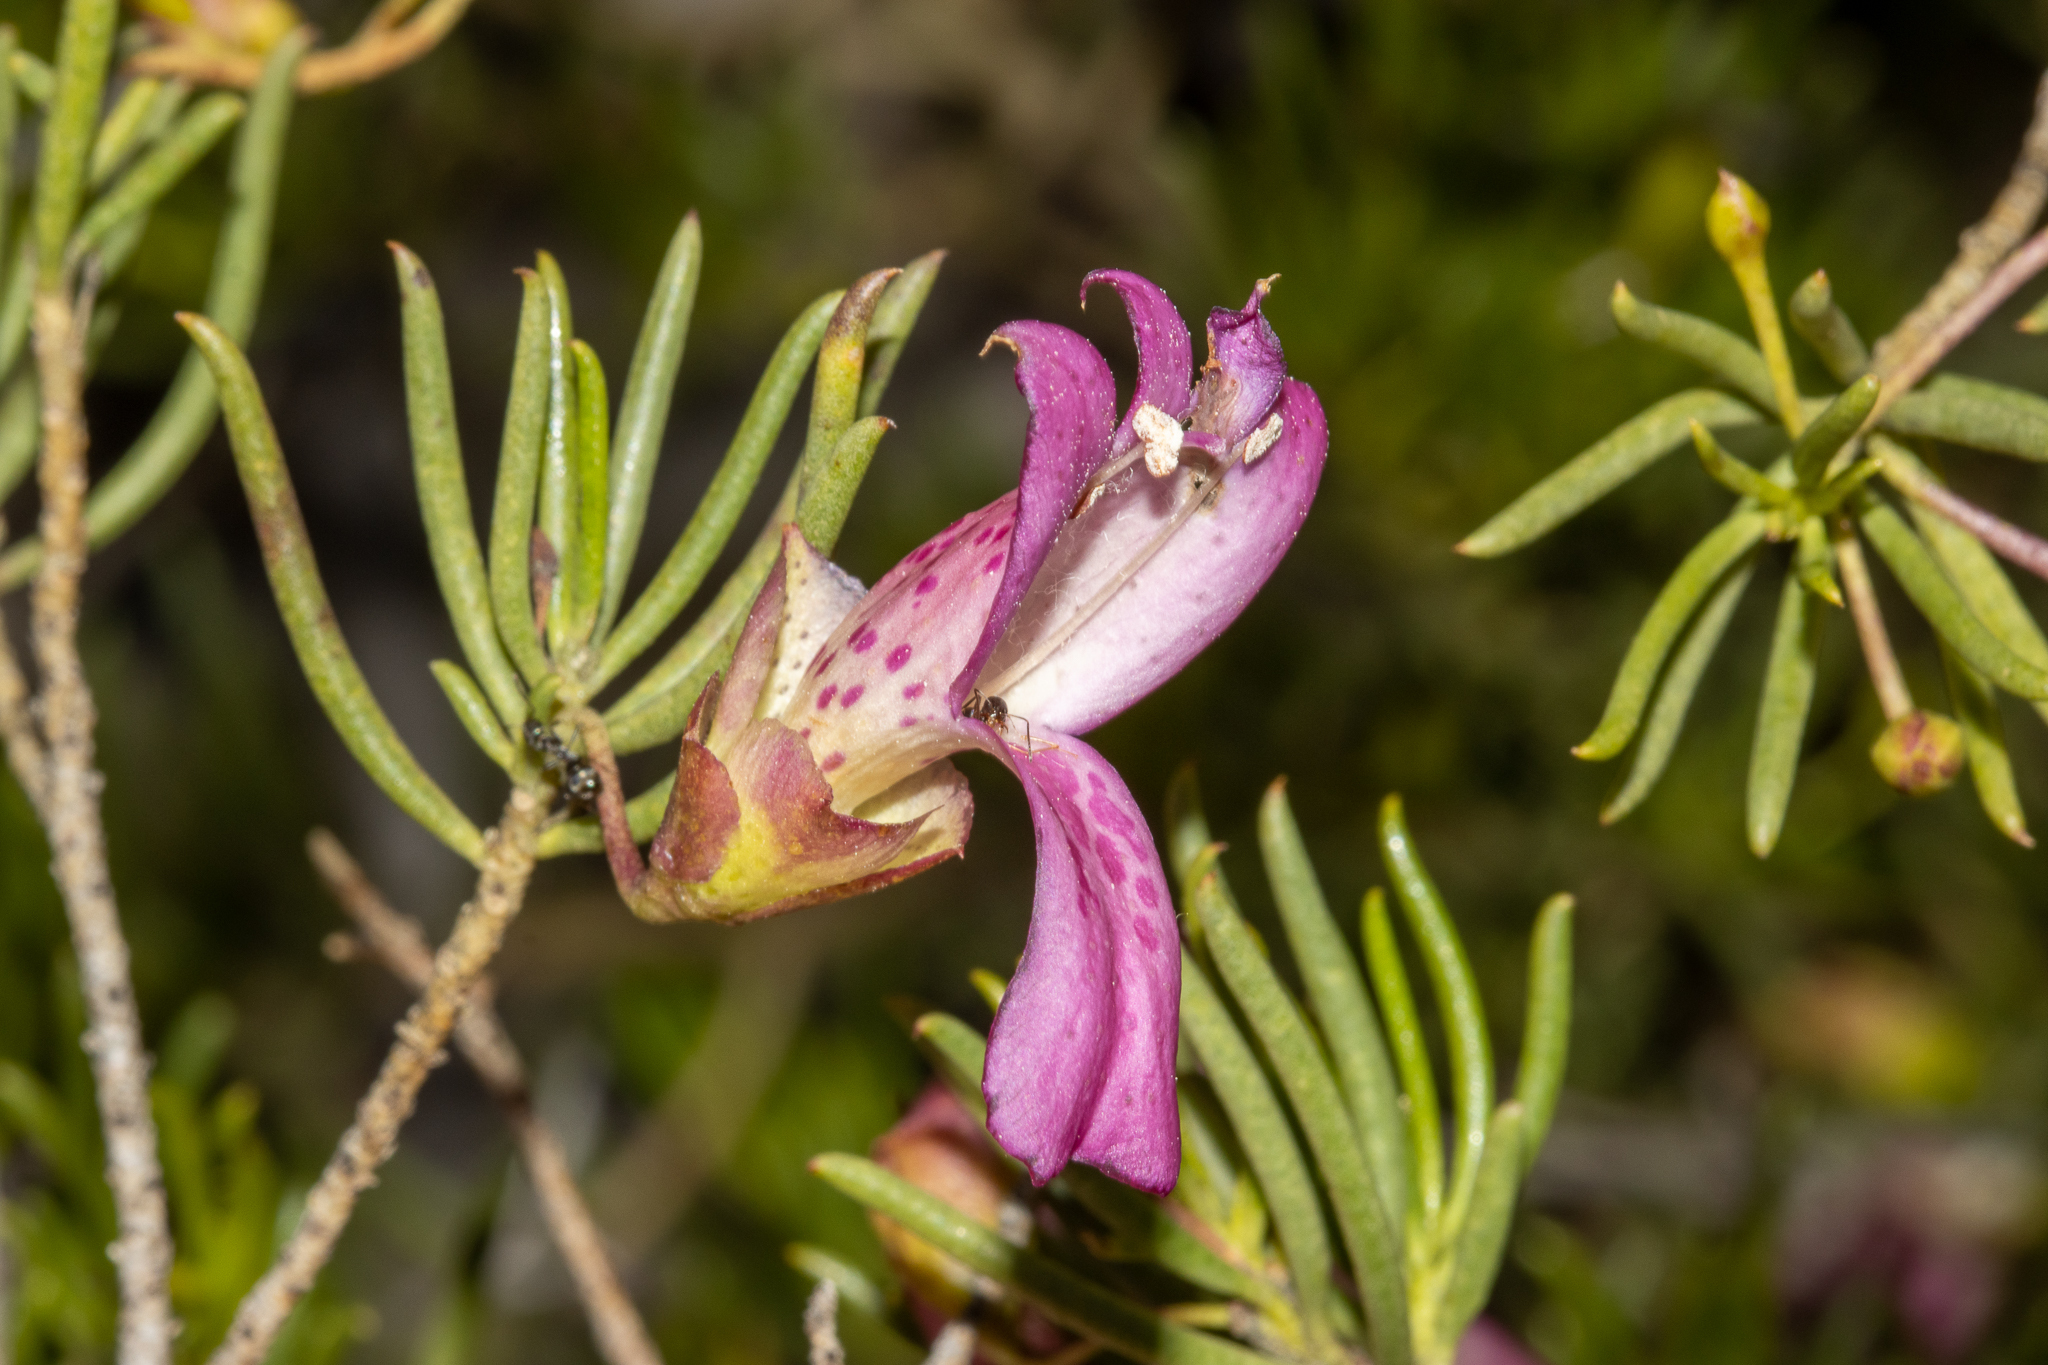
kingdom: Plantae
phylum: Tracheophyta
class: Magnoliopsida
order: Lamiales
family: Scrophulariaceae
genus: Eremophila
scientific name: Eremophila alternifolia
